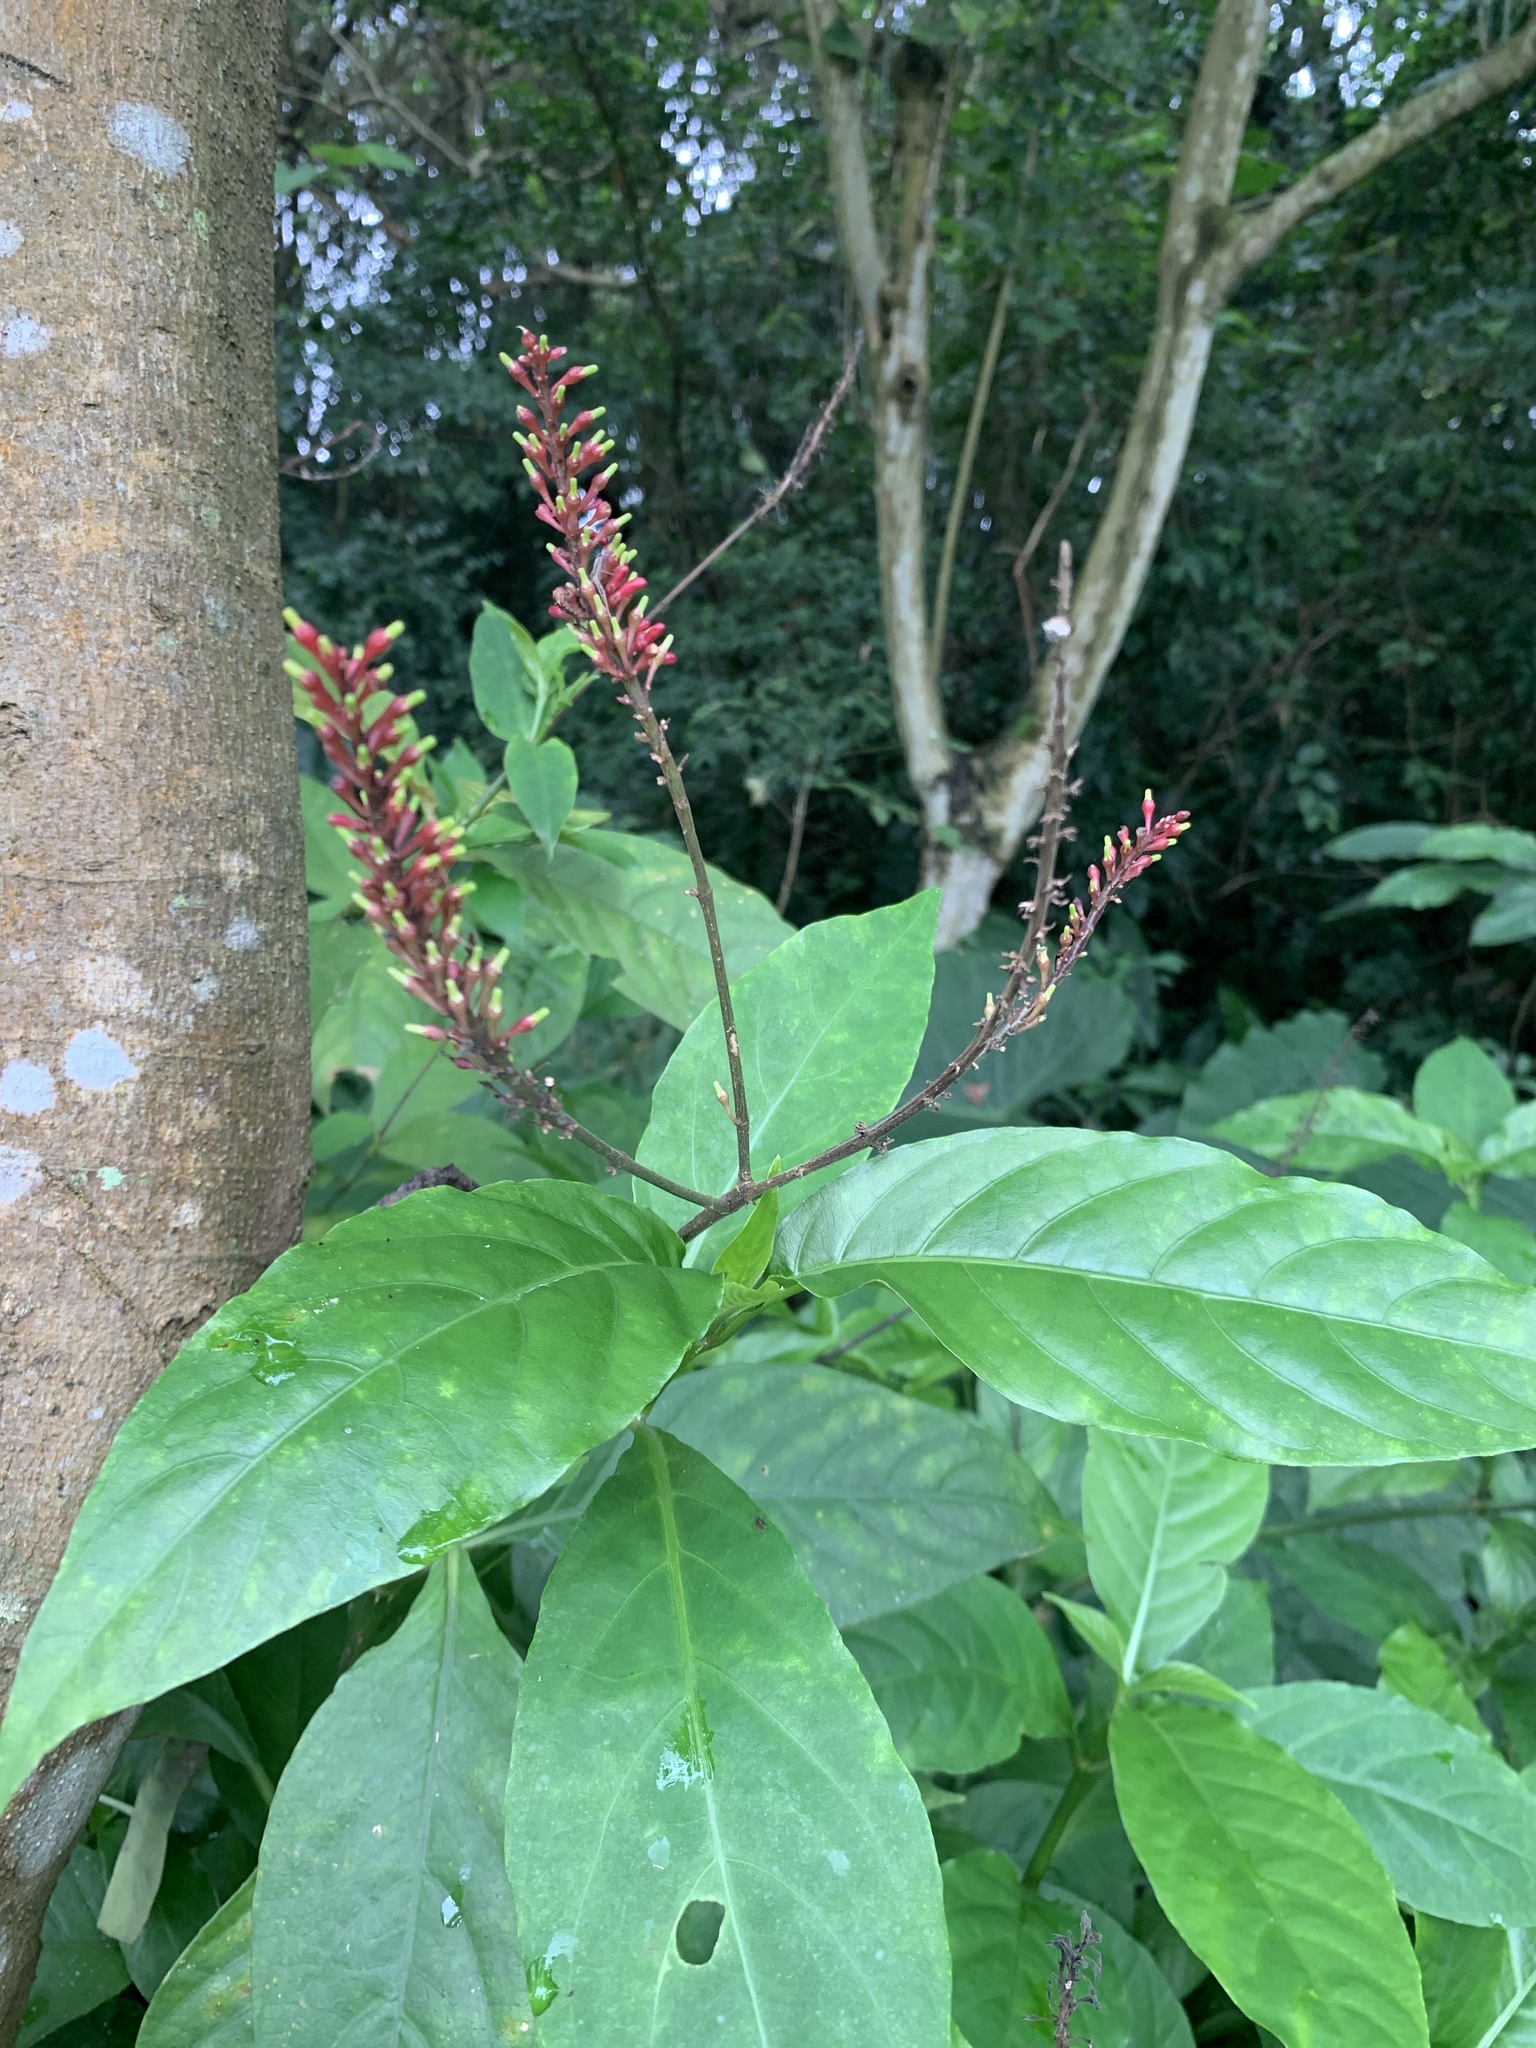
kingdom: Plantae
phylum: Tracheophyta
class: Magnoliopsida
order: Lamiales
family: Acanthaceae
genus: Odontonema
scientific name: Odontonema tubaeforme
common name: Firespike
